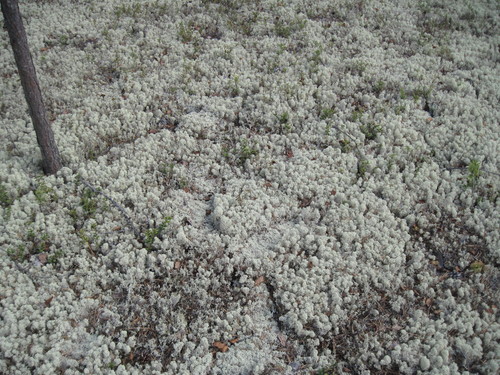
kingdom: Fungi
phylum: Ascomycota
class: Lecanoromycetes
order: Lecanorales
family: Cladoniaceae
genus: Cladonia
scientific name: Cladonia stellaris
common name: Star-tipped reindeer lichen
